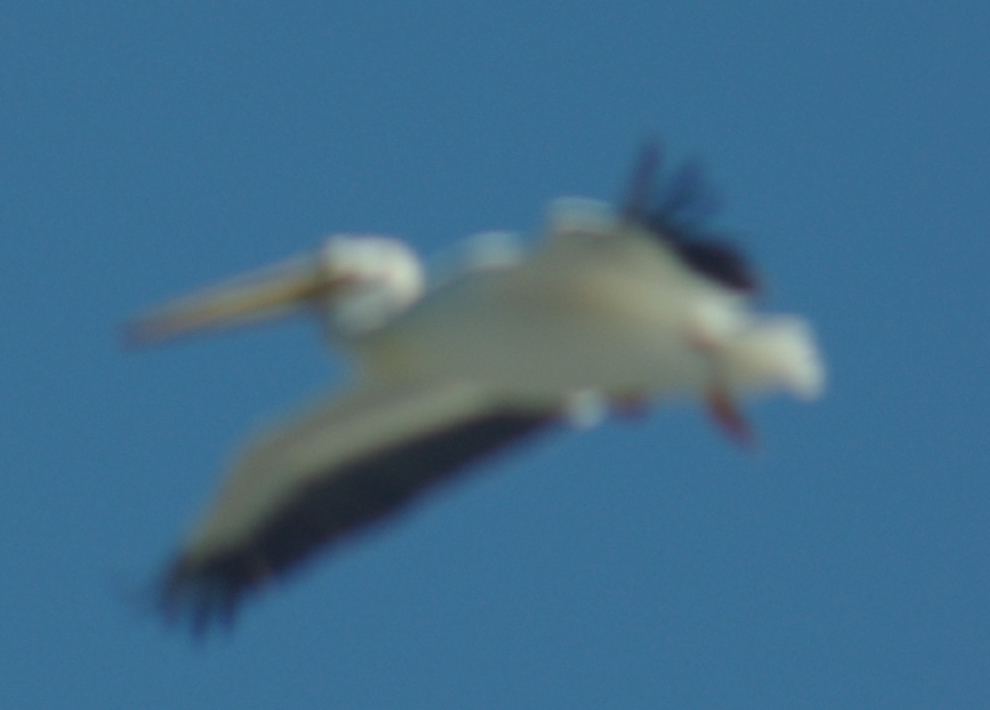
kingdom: Animalia
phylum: Chordata
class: Aves
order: Pelecaniformes
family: Pelecanidae
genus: Pelecanus
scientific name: Pelecanus erythrorhynchos
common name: American white pelican
